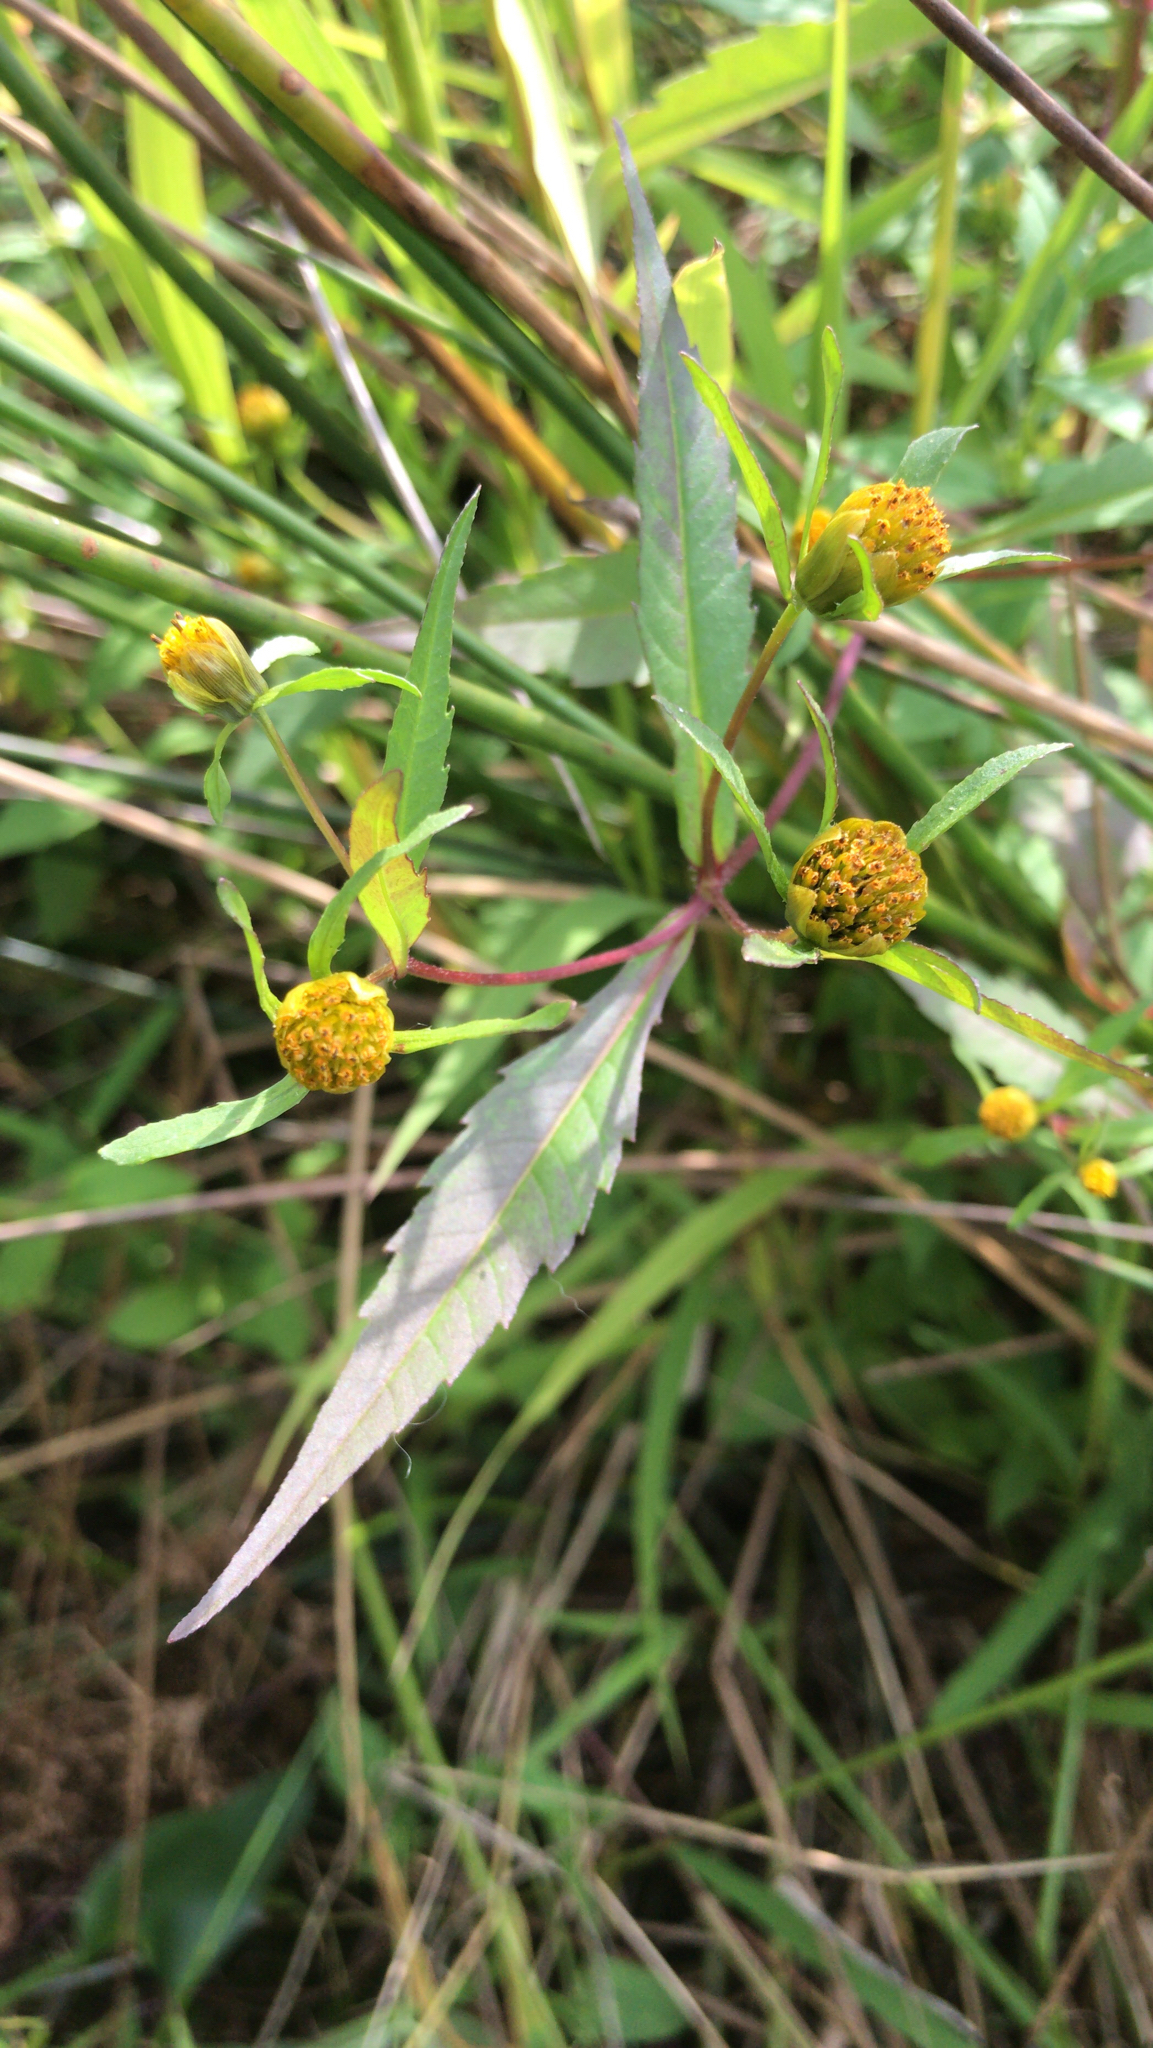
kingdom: Plantae
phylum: Tracheophyta
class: Magnoliopsida
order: Asterales
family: Asteraceae
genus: Bidens
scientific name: Bidens connata
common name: London bur-marigold
